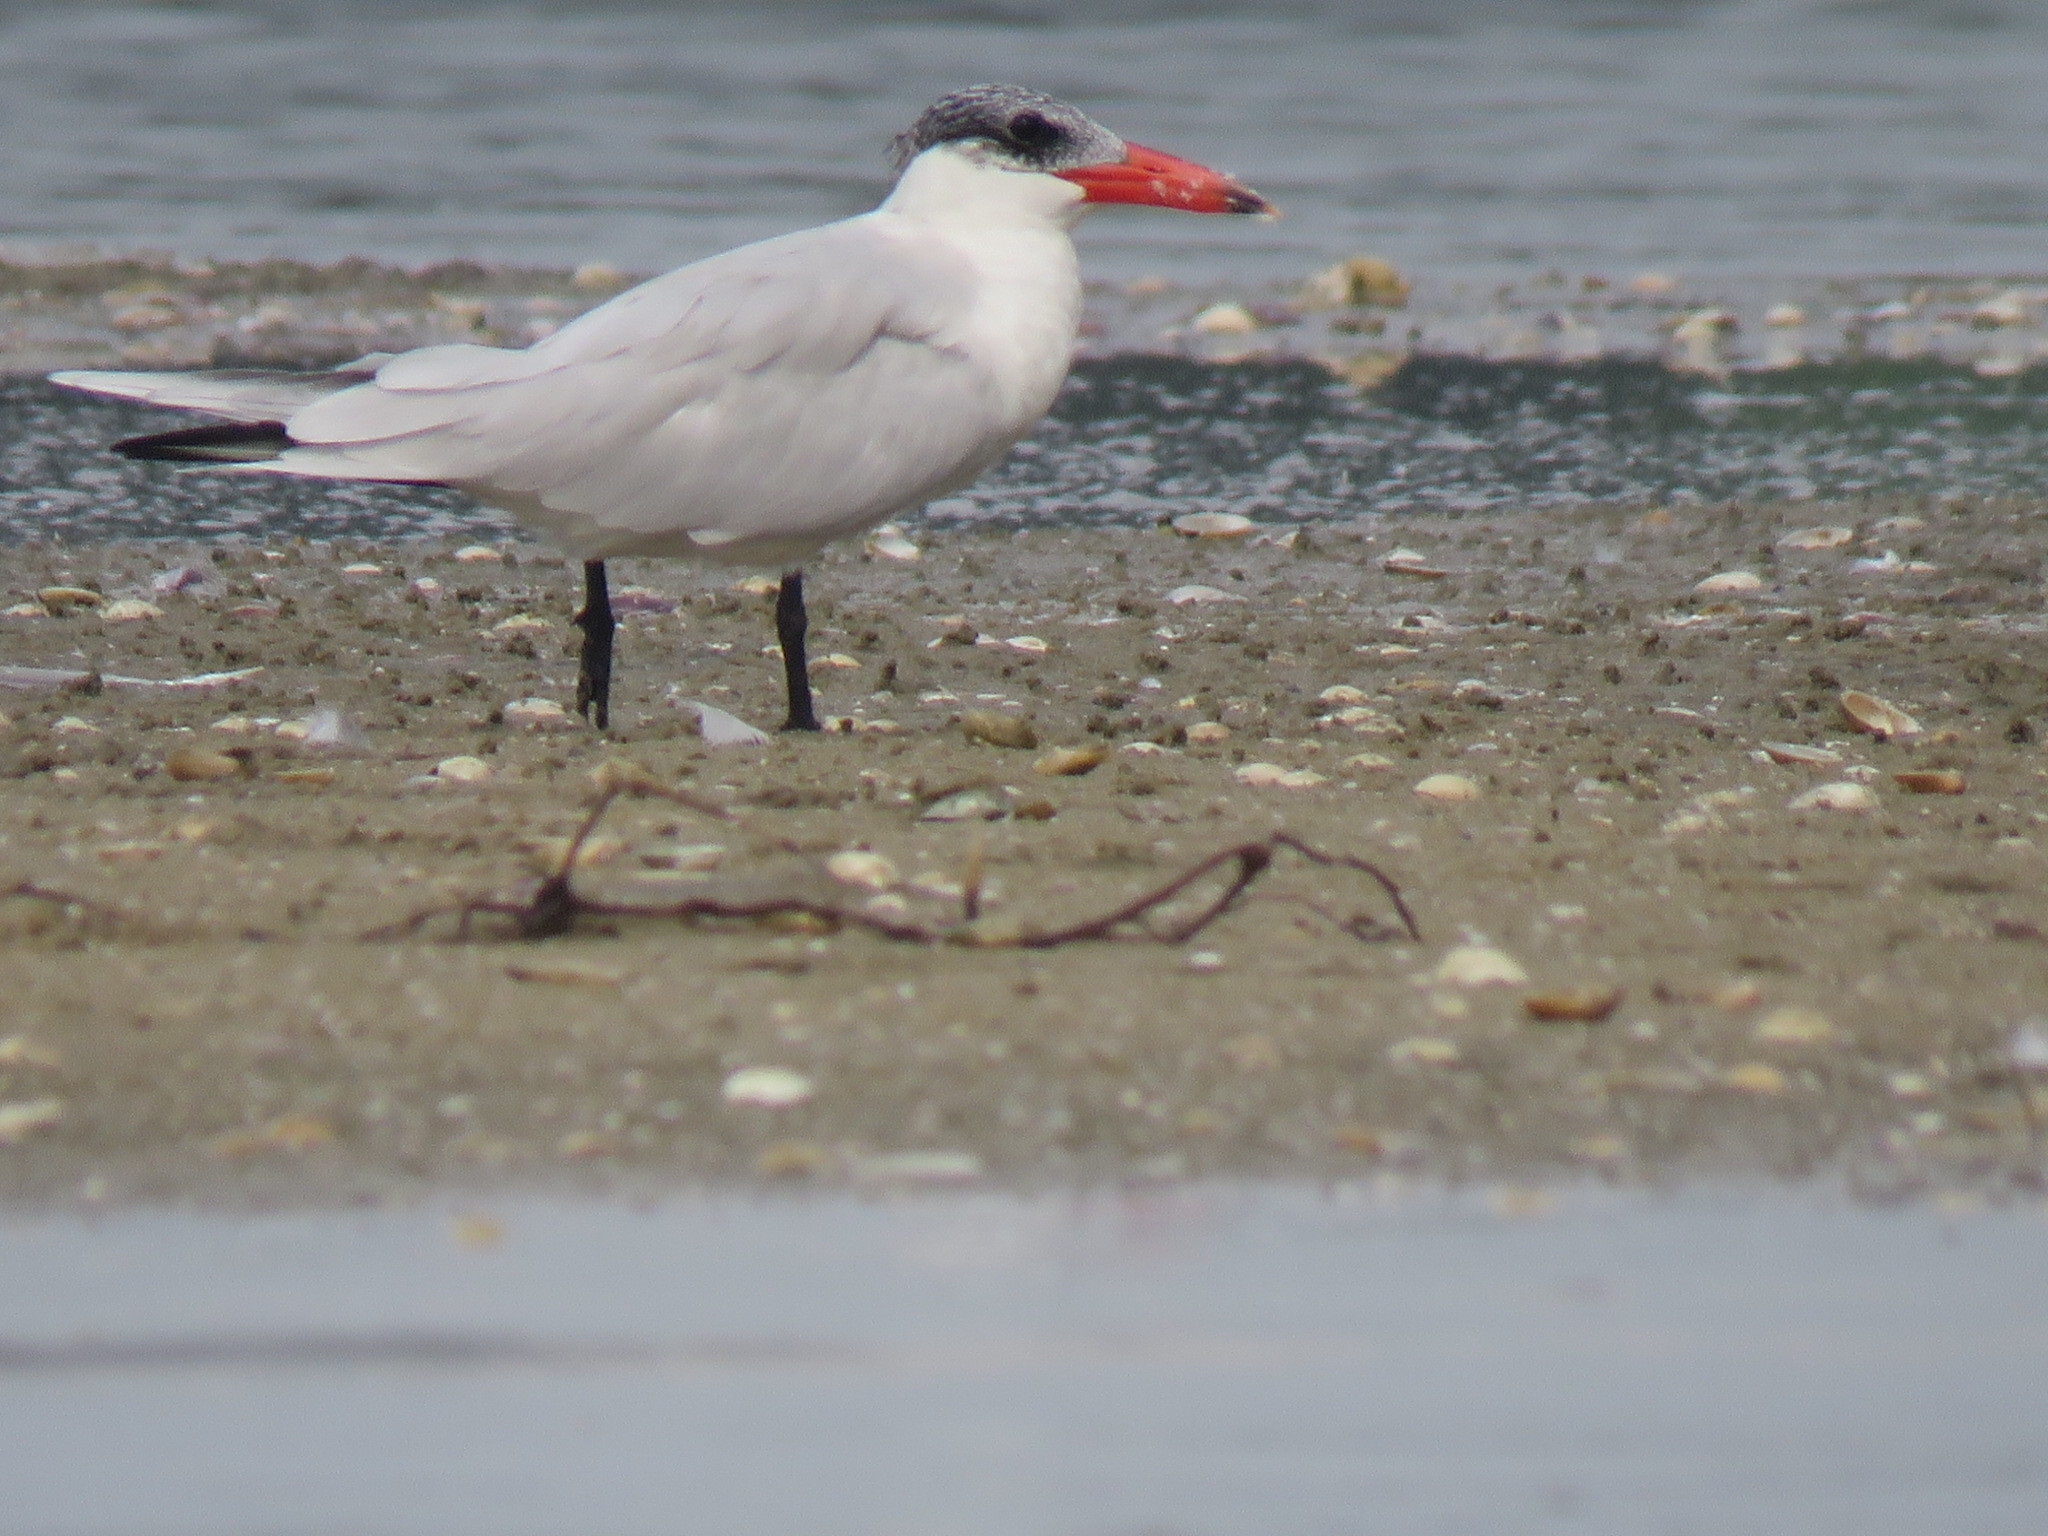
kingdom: Animalia
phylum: Chordata
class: Aves
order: Charadriiformes
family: Laridae
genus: Hydroprogne
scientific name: Hydroprogne caspia
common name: Caspian tern
